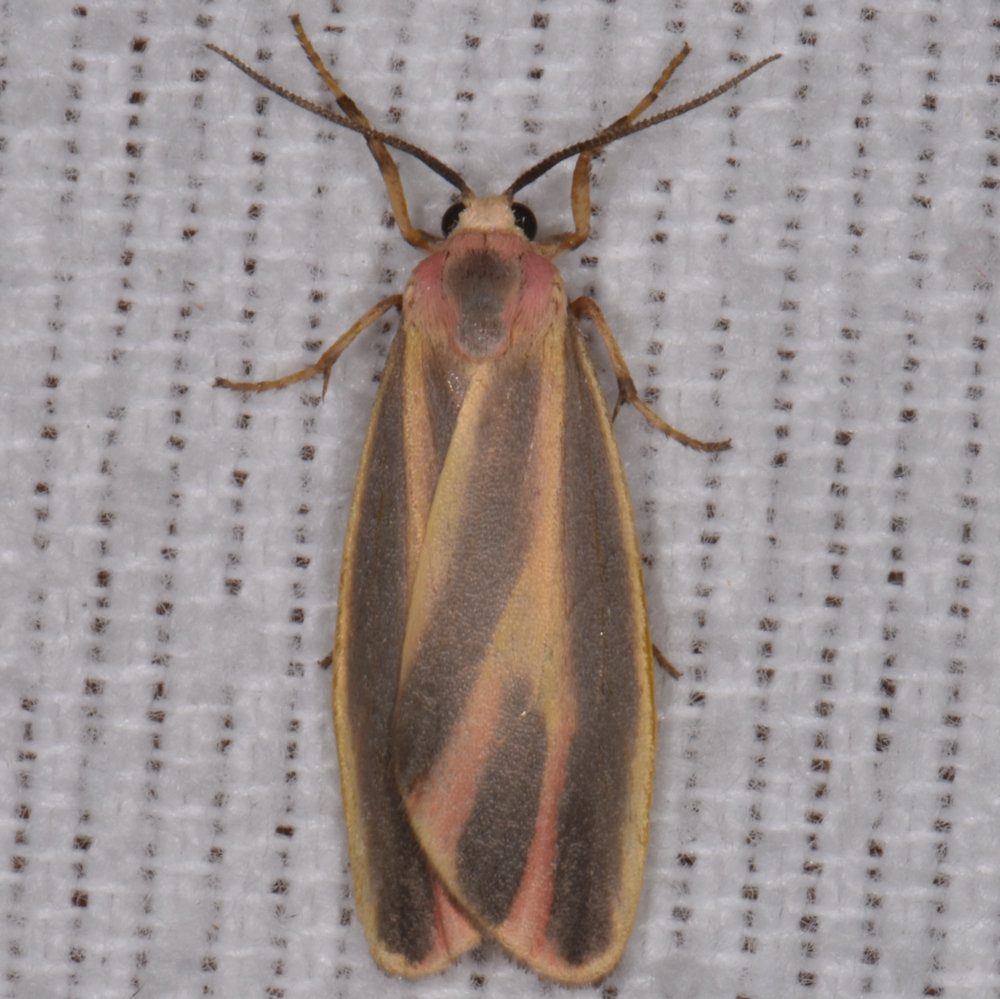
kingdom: Animalia
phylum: Arthropoda
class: Insecta
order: Lepidoptera
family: Erebidae
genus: Hypoprepia
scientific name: Hypoprepia fucosa
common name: Painted lichen moth
